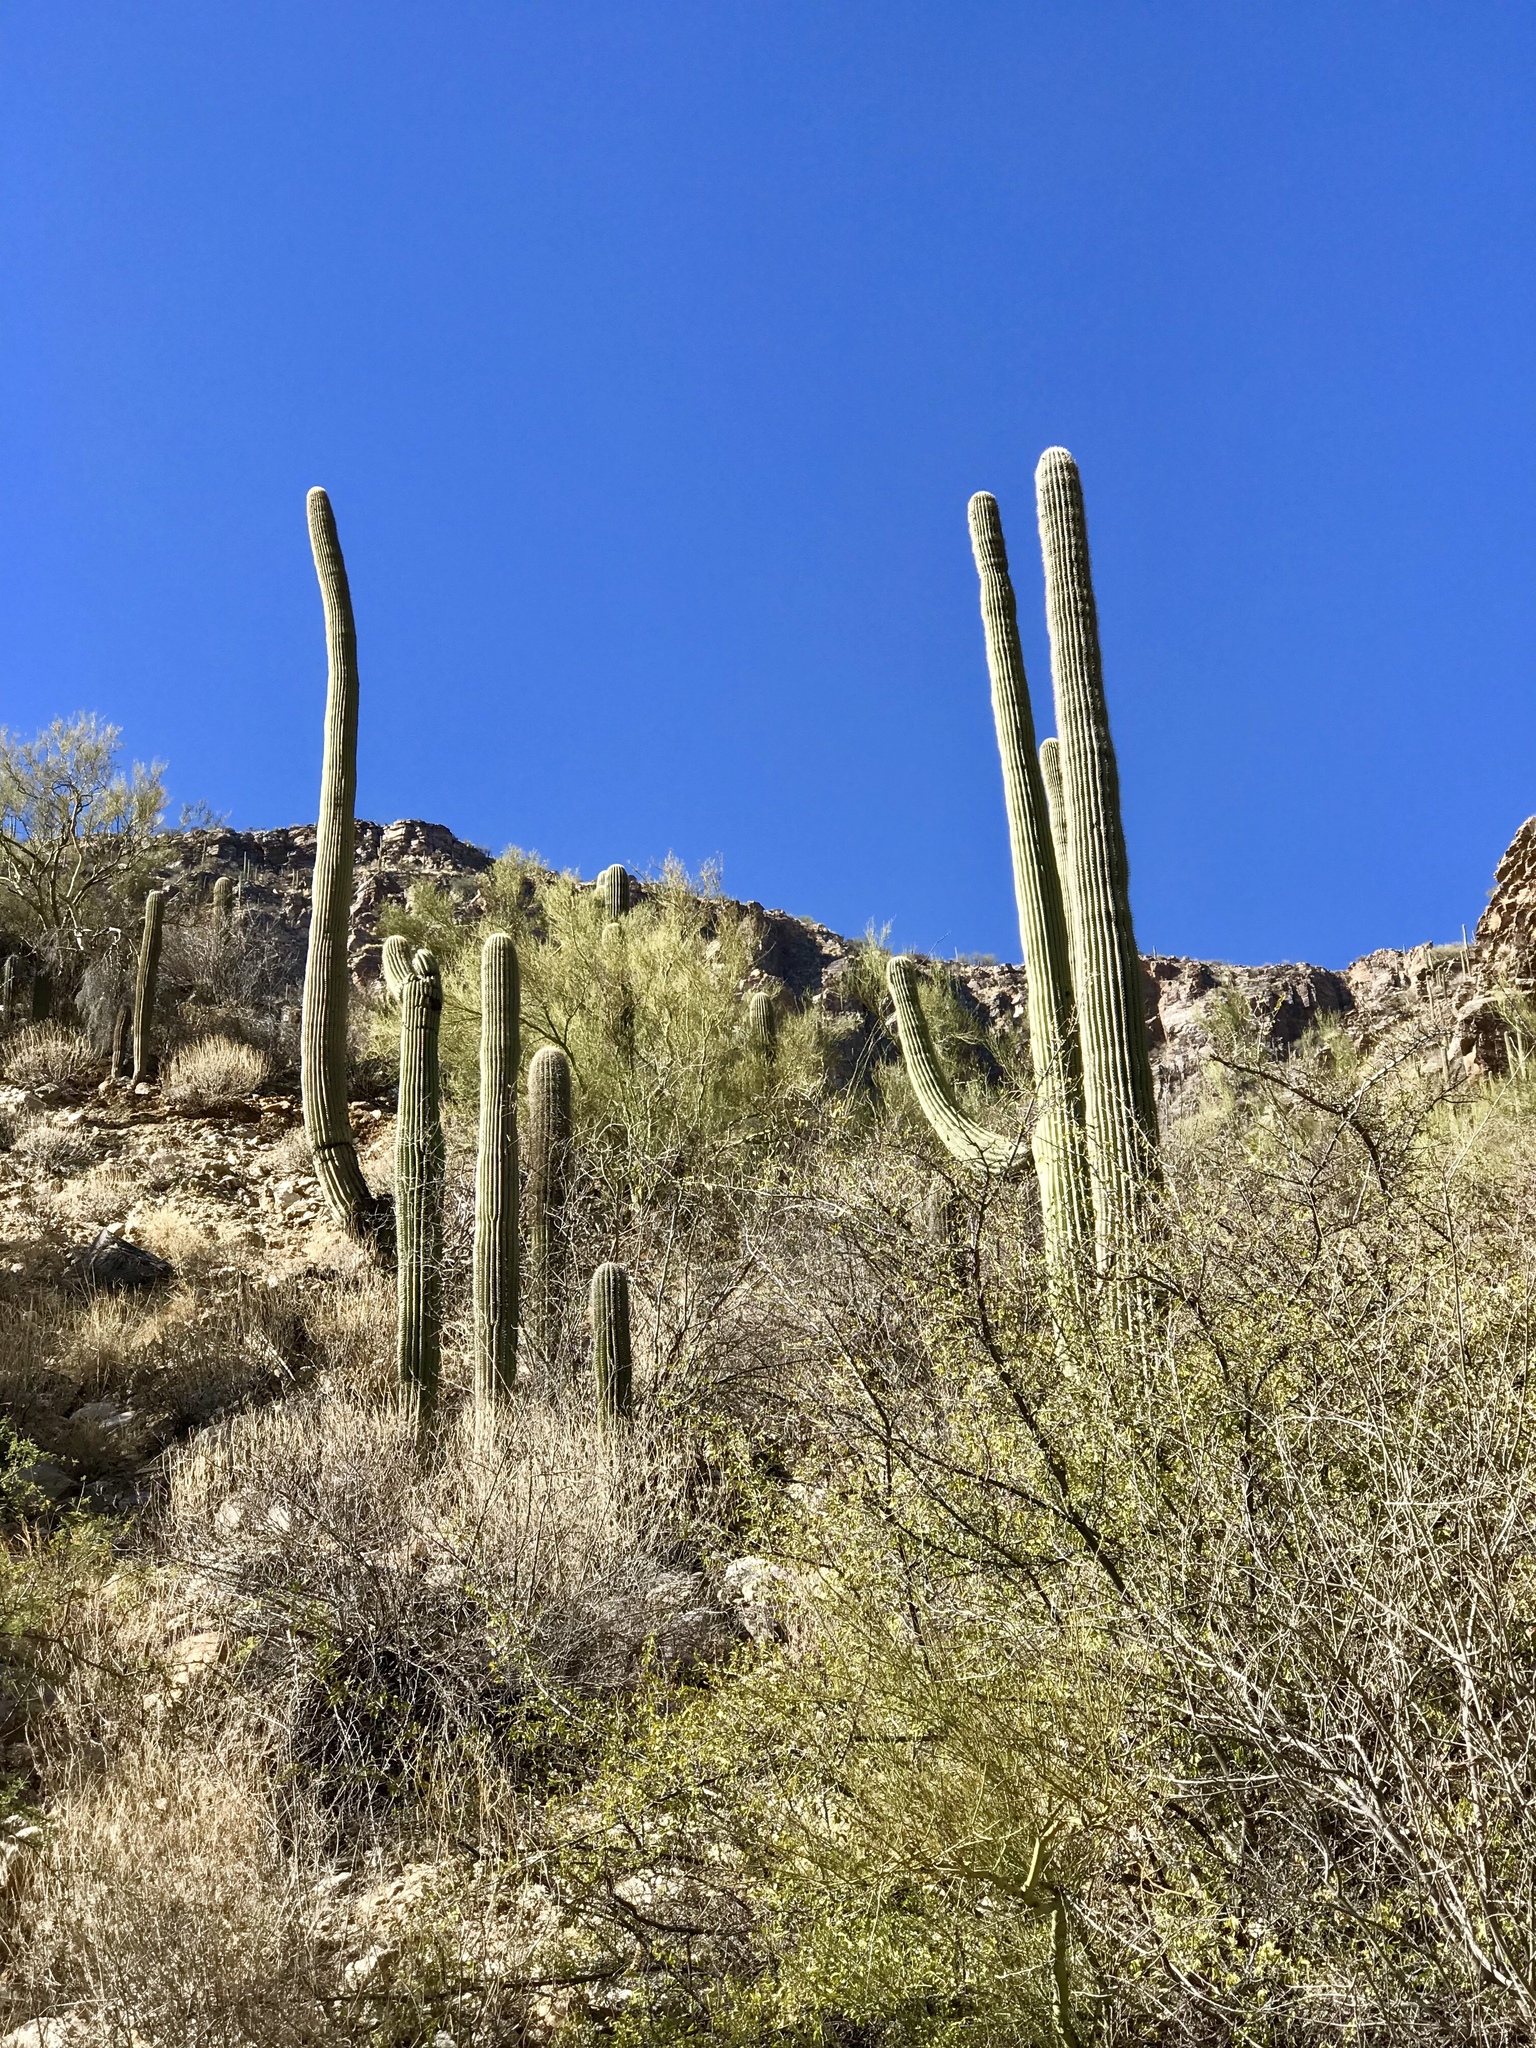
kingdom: Plantae
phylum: Tracheophyta
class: Magnoliopsida
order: Caryophyllales
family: Cactaceae
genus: Carnegiea
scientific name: Carnegiea gigantea
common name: Saguaro
